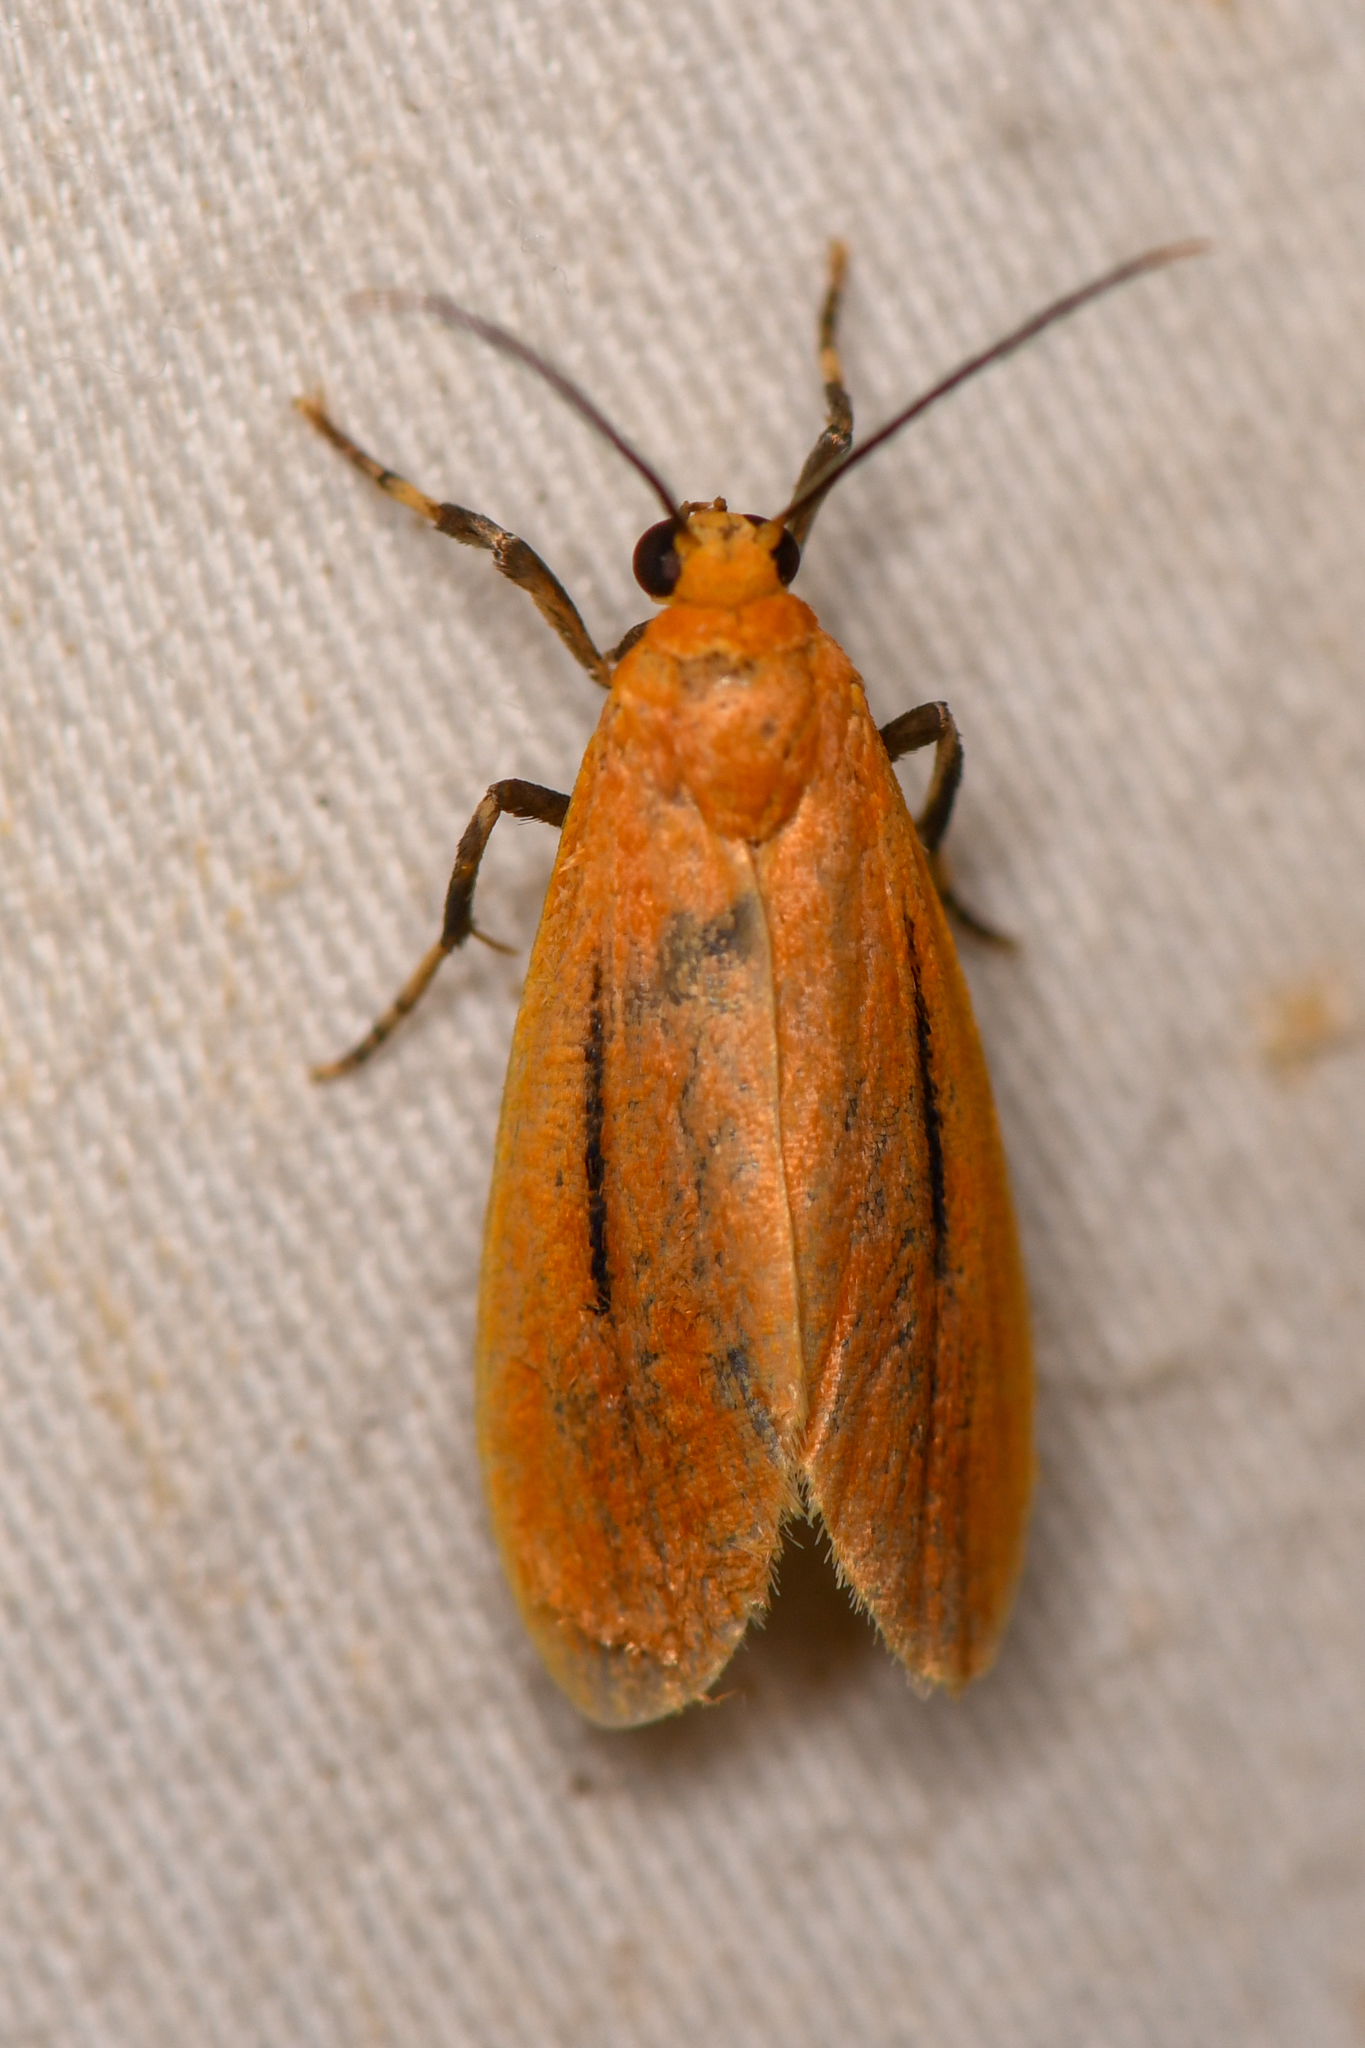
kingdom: Animalia
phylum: Arthropoda
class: Insecta
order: Lepidoptera
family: Erebidae
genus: Lycomorphodes
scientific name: Lycomorphodes bicolor
